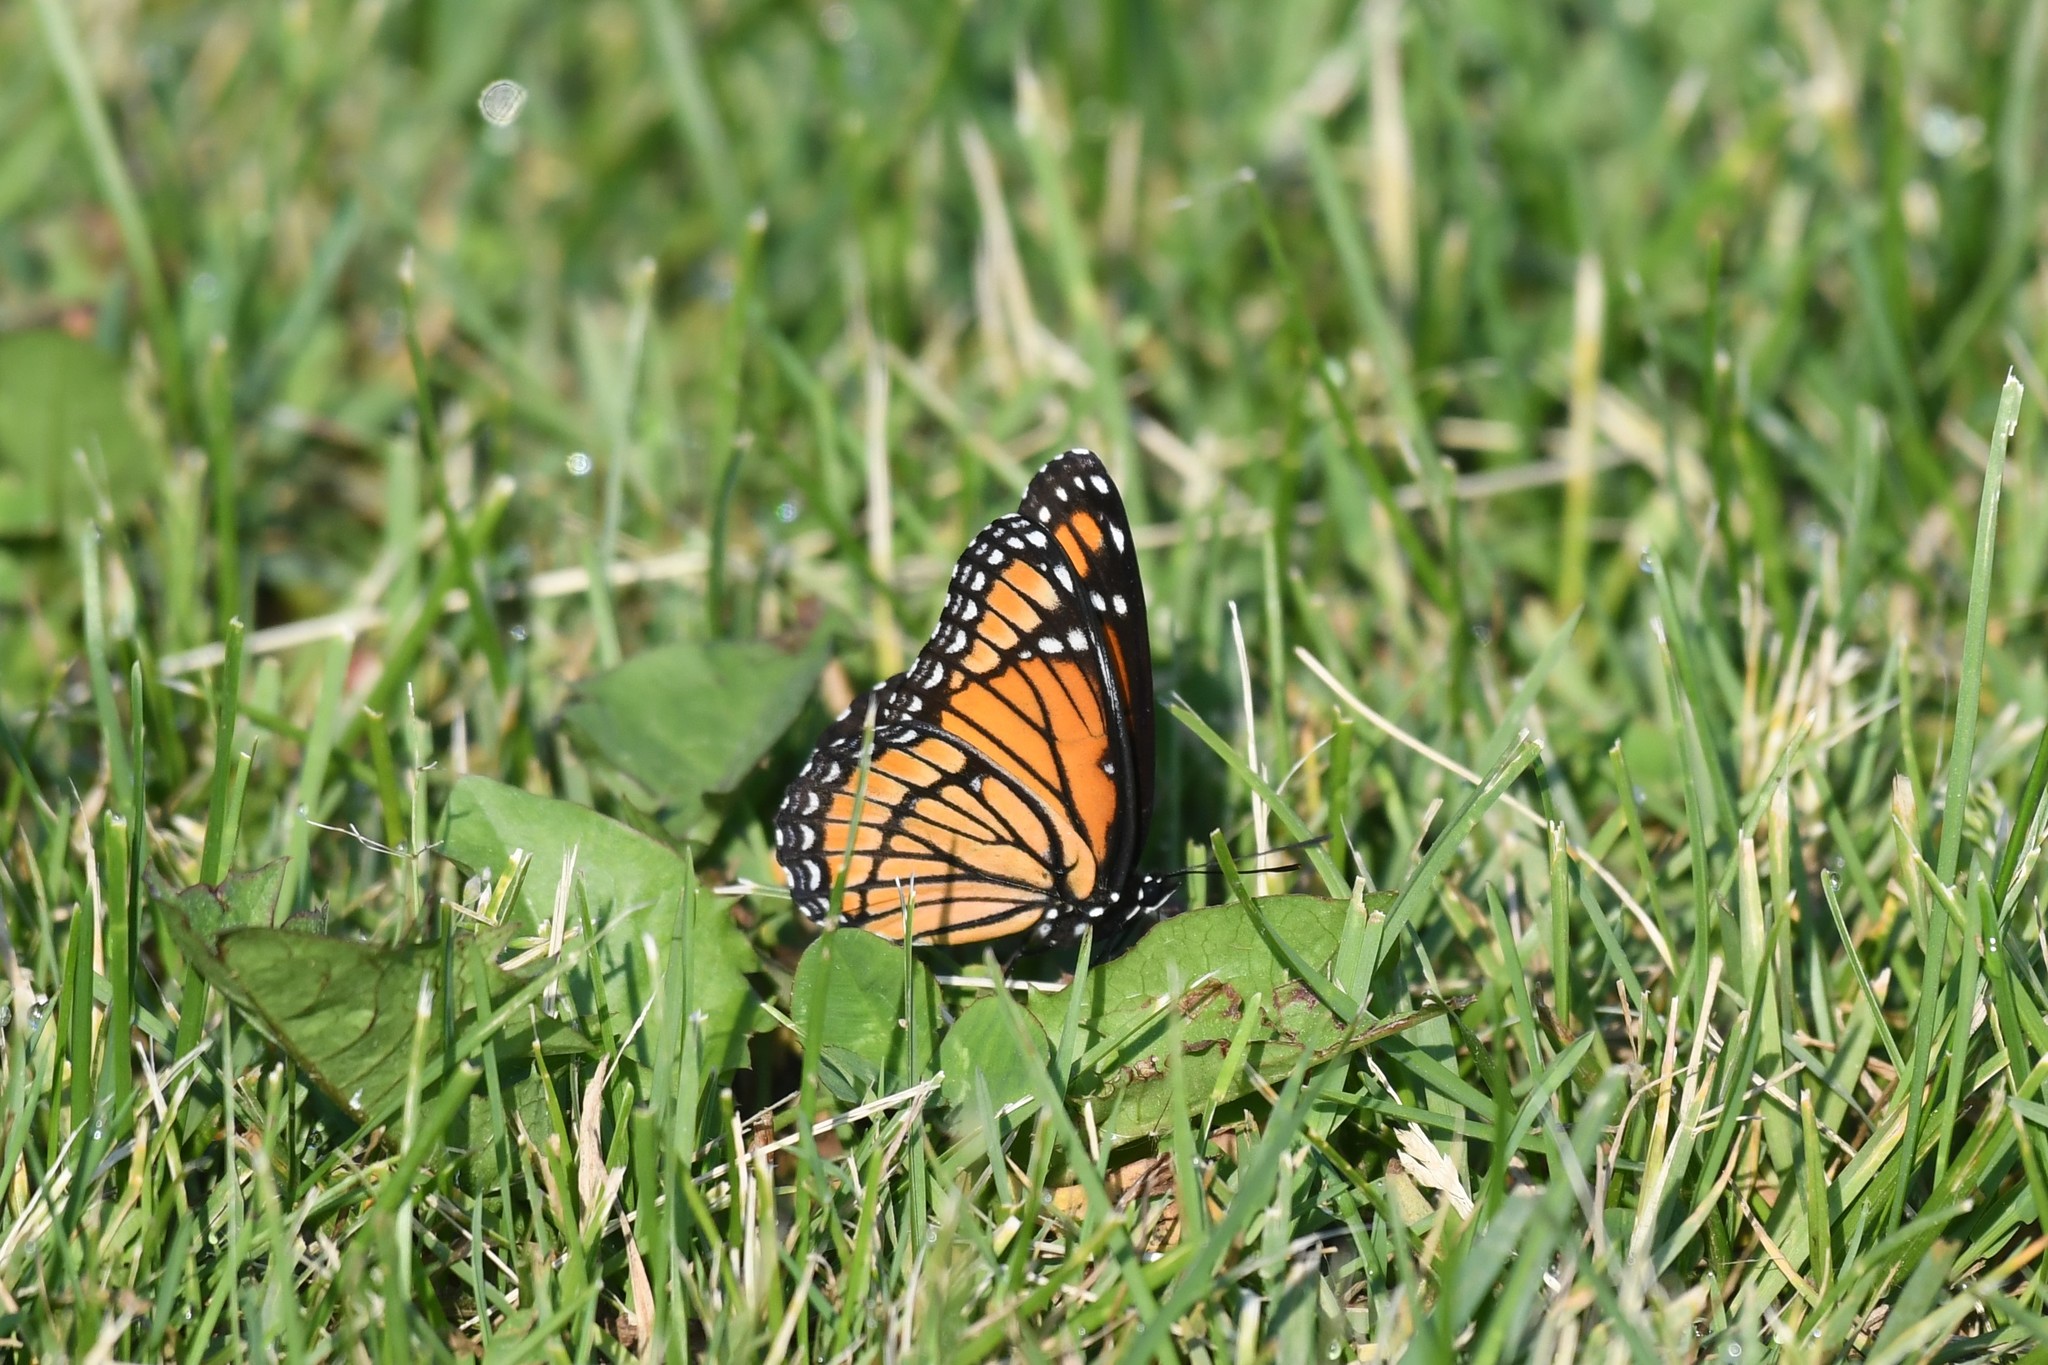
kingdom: Animalia
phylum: Arthropoda
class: Insecta
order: Lepidoptera
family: Nymphalidae
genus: Limenitis
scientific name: Limenitis archippus
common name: Viceroy
